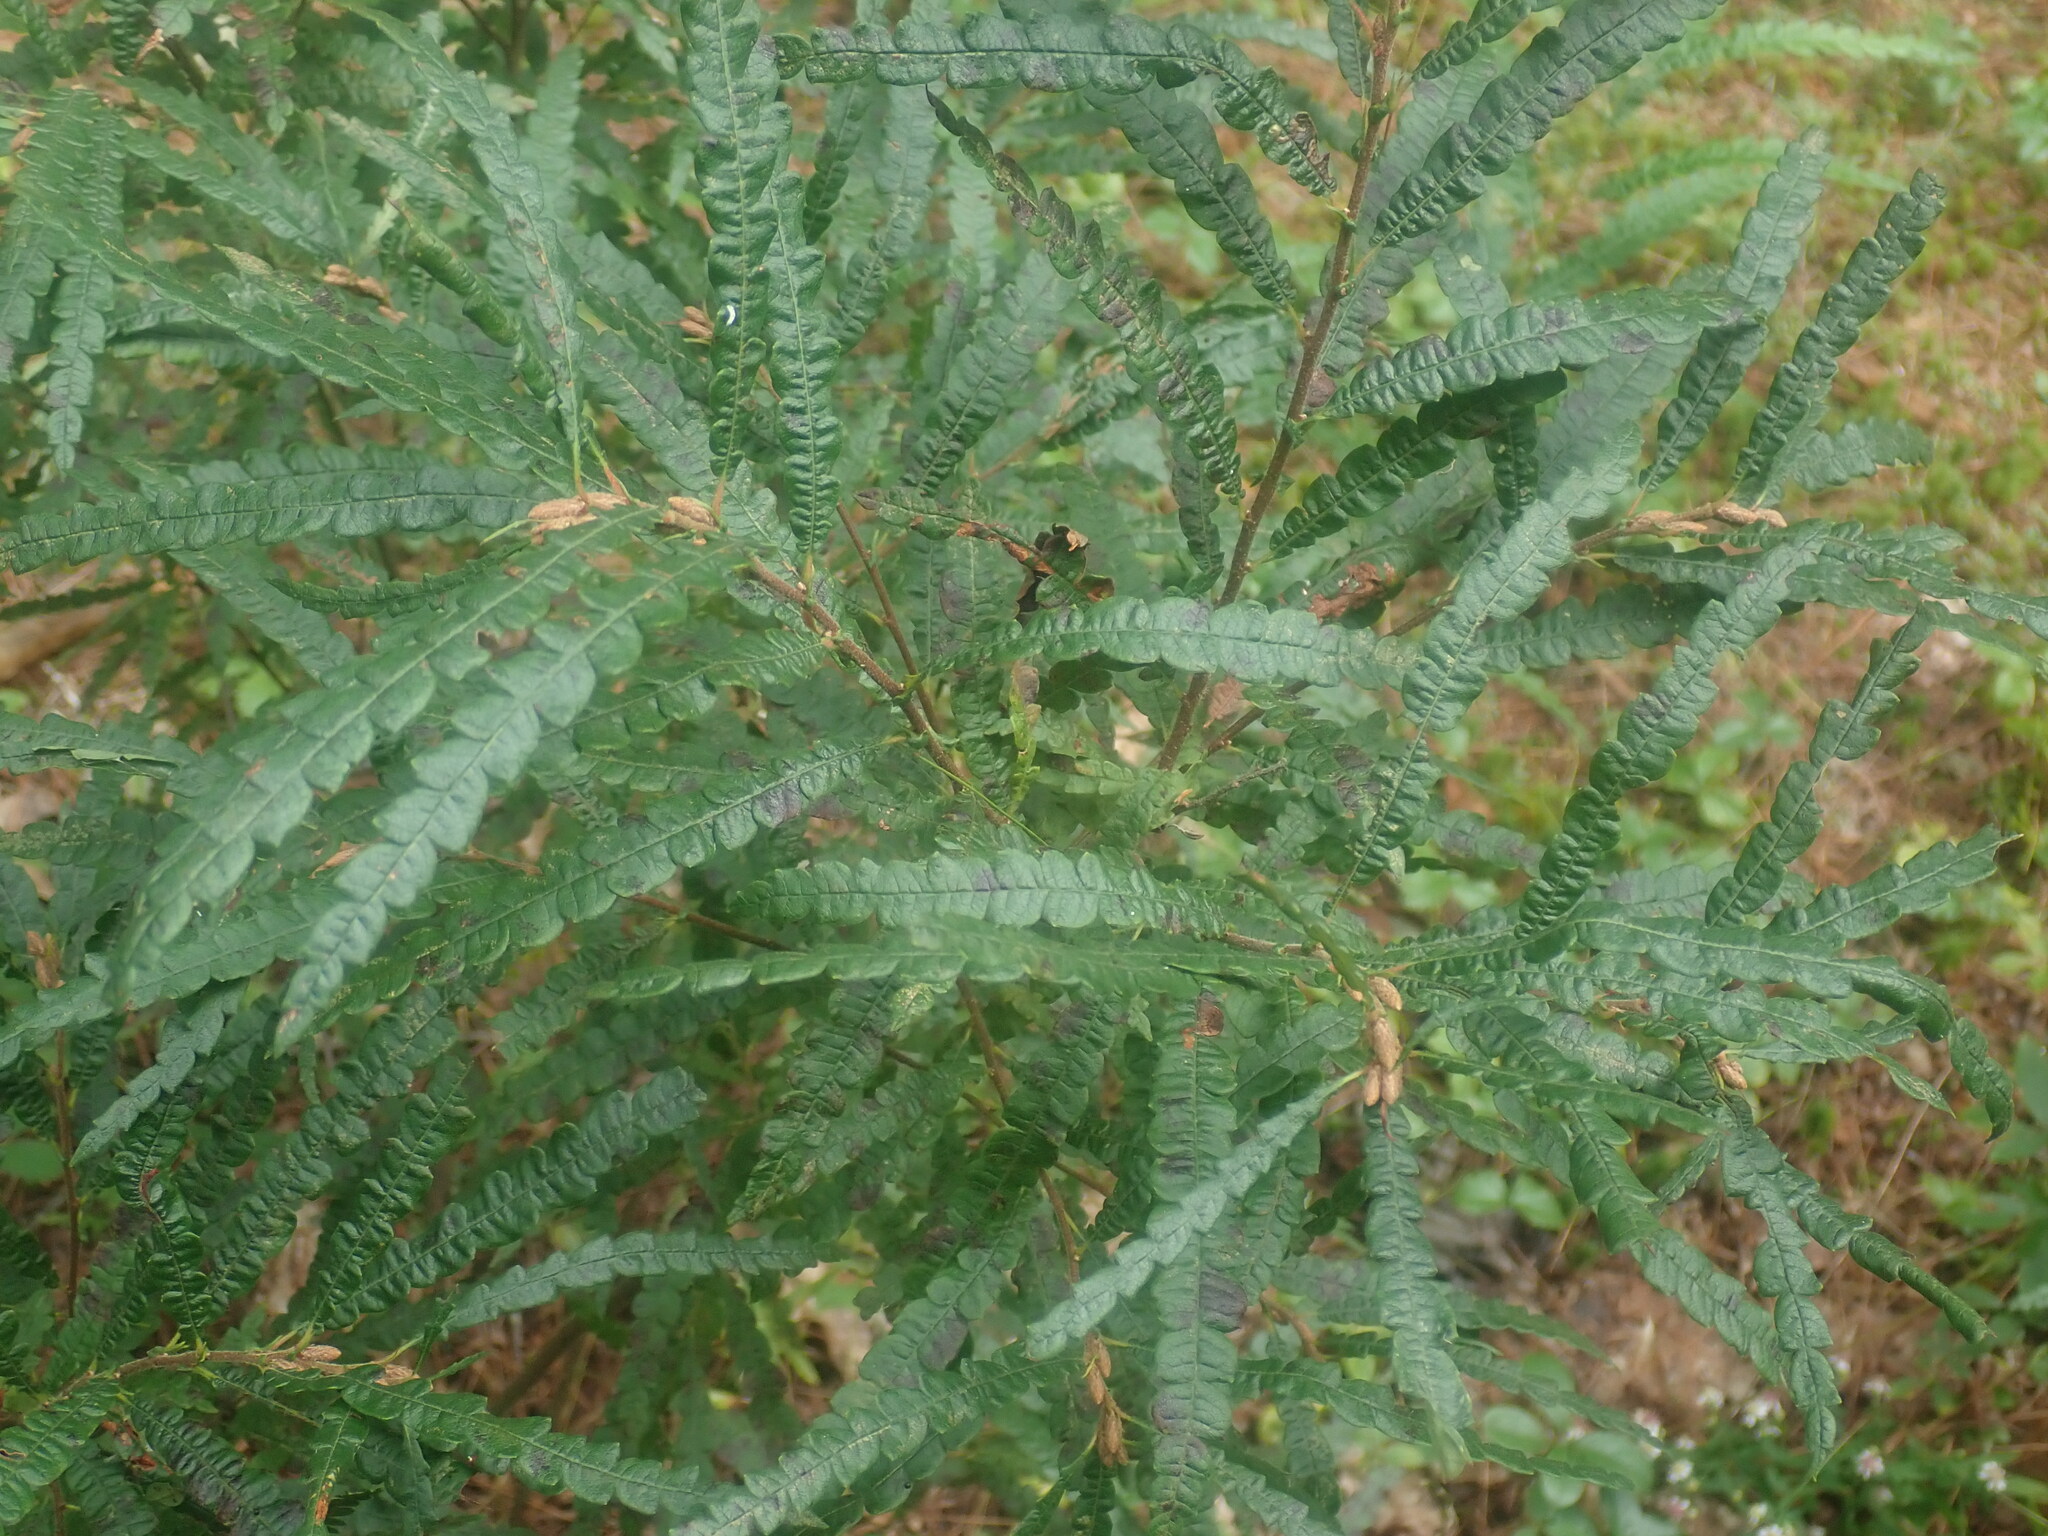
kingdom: Plantae
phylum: Tracheophyta
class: Magnoliopsida
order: Fagales
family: Myricaceae
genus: Comptonia
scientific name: Comptonia peregrina
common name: Sweet-fern
